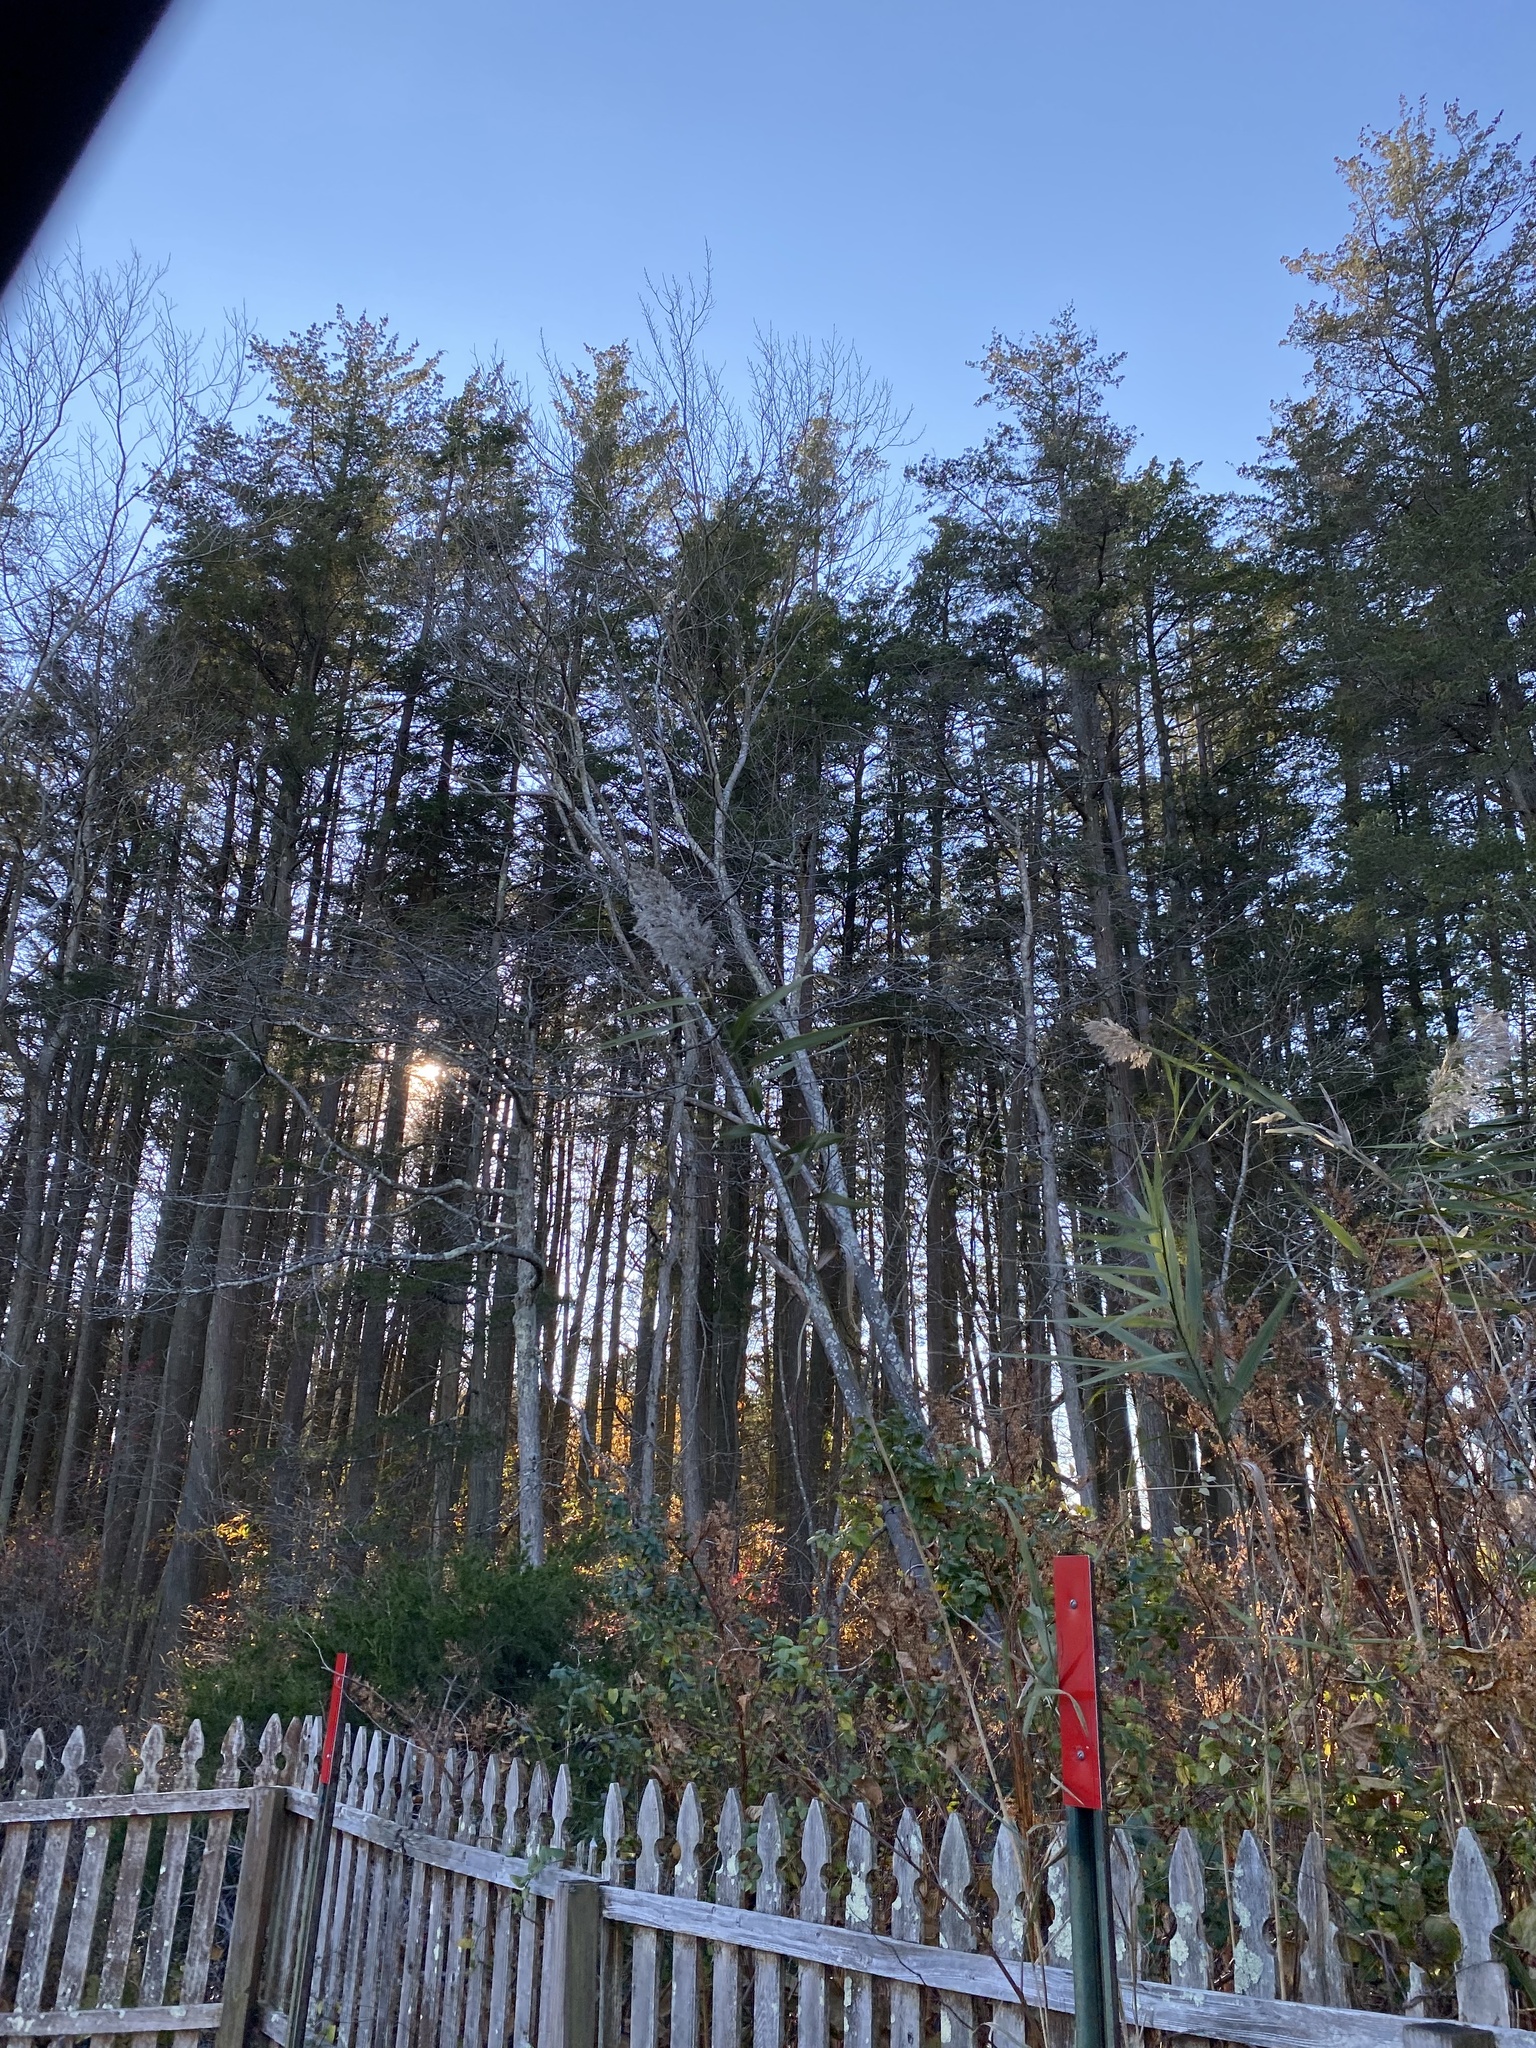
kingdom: Plantae
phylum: Tracheophyta
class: Pinopsida
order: Pinales
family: Cupressaceae
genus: Chamaecyparis
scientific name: Chamaecyparis thyoides
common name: Atlantic white cedar
